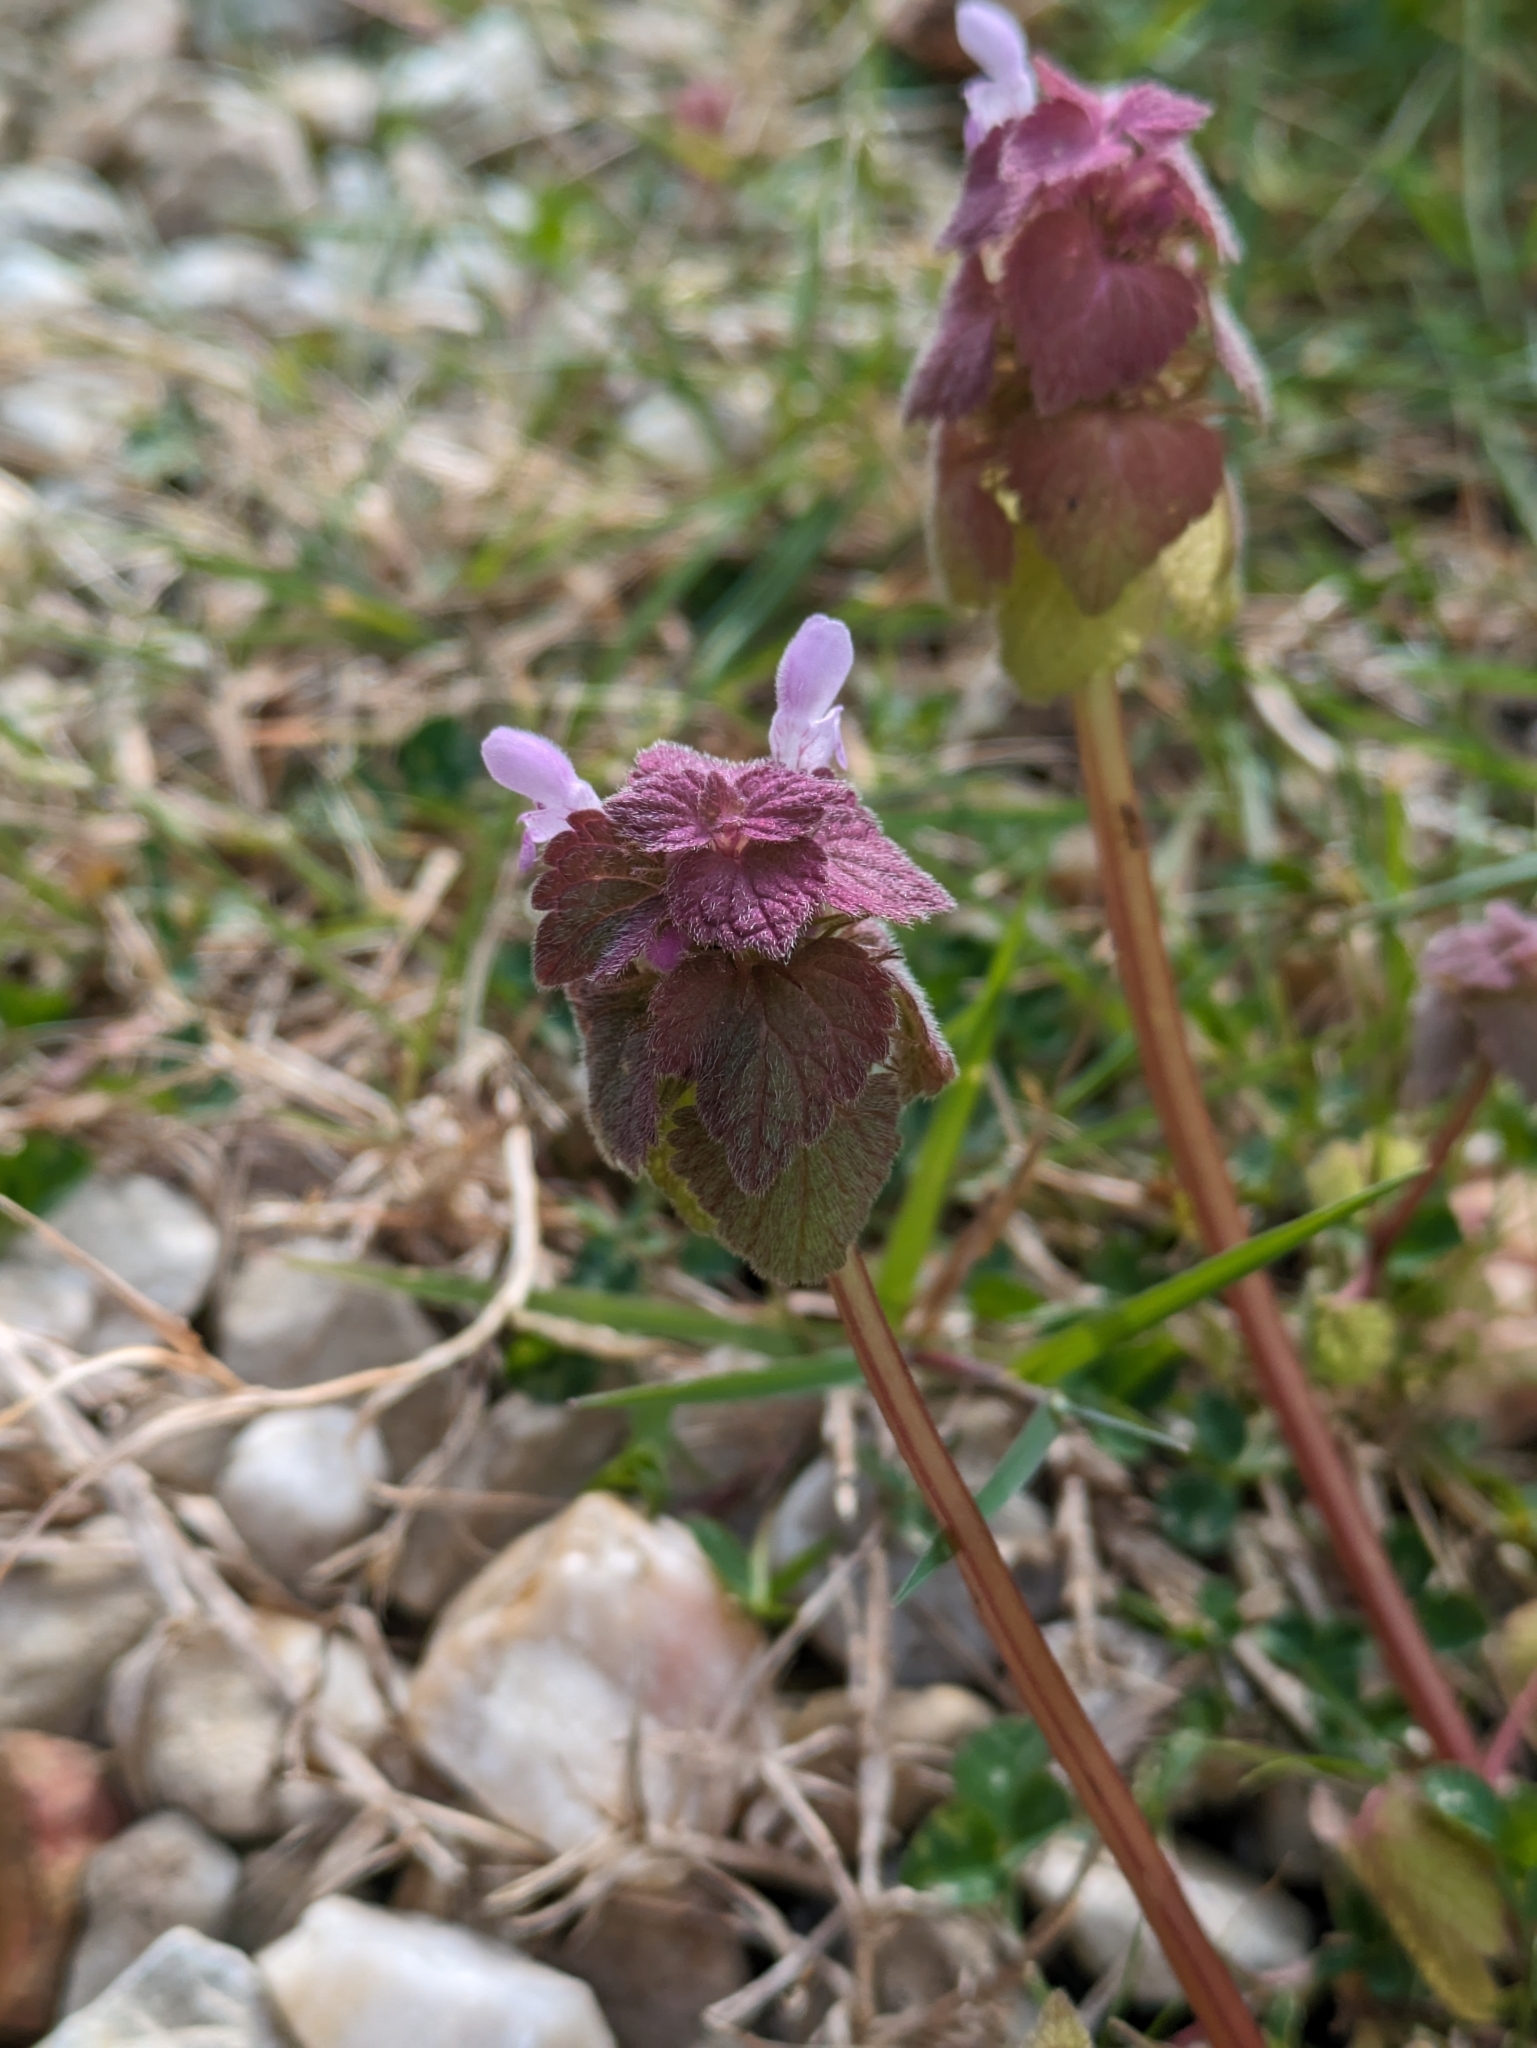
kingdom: Plantae
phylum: Tracheophyta
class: Magnoliopsida
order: Lamiales
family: Lamiaceae
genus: Lamium
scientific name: Lamium purpureum
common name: Red dead-nettle
